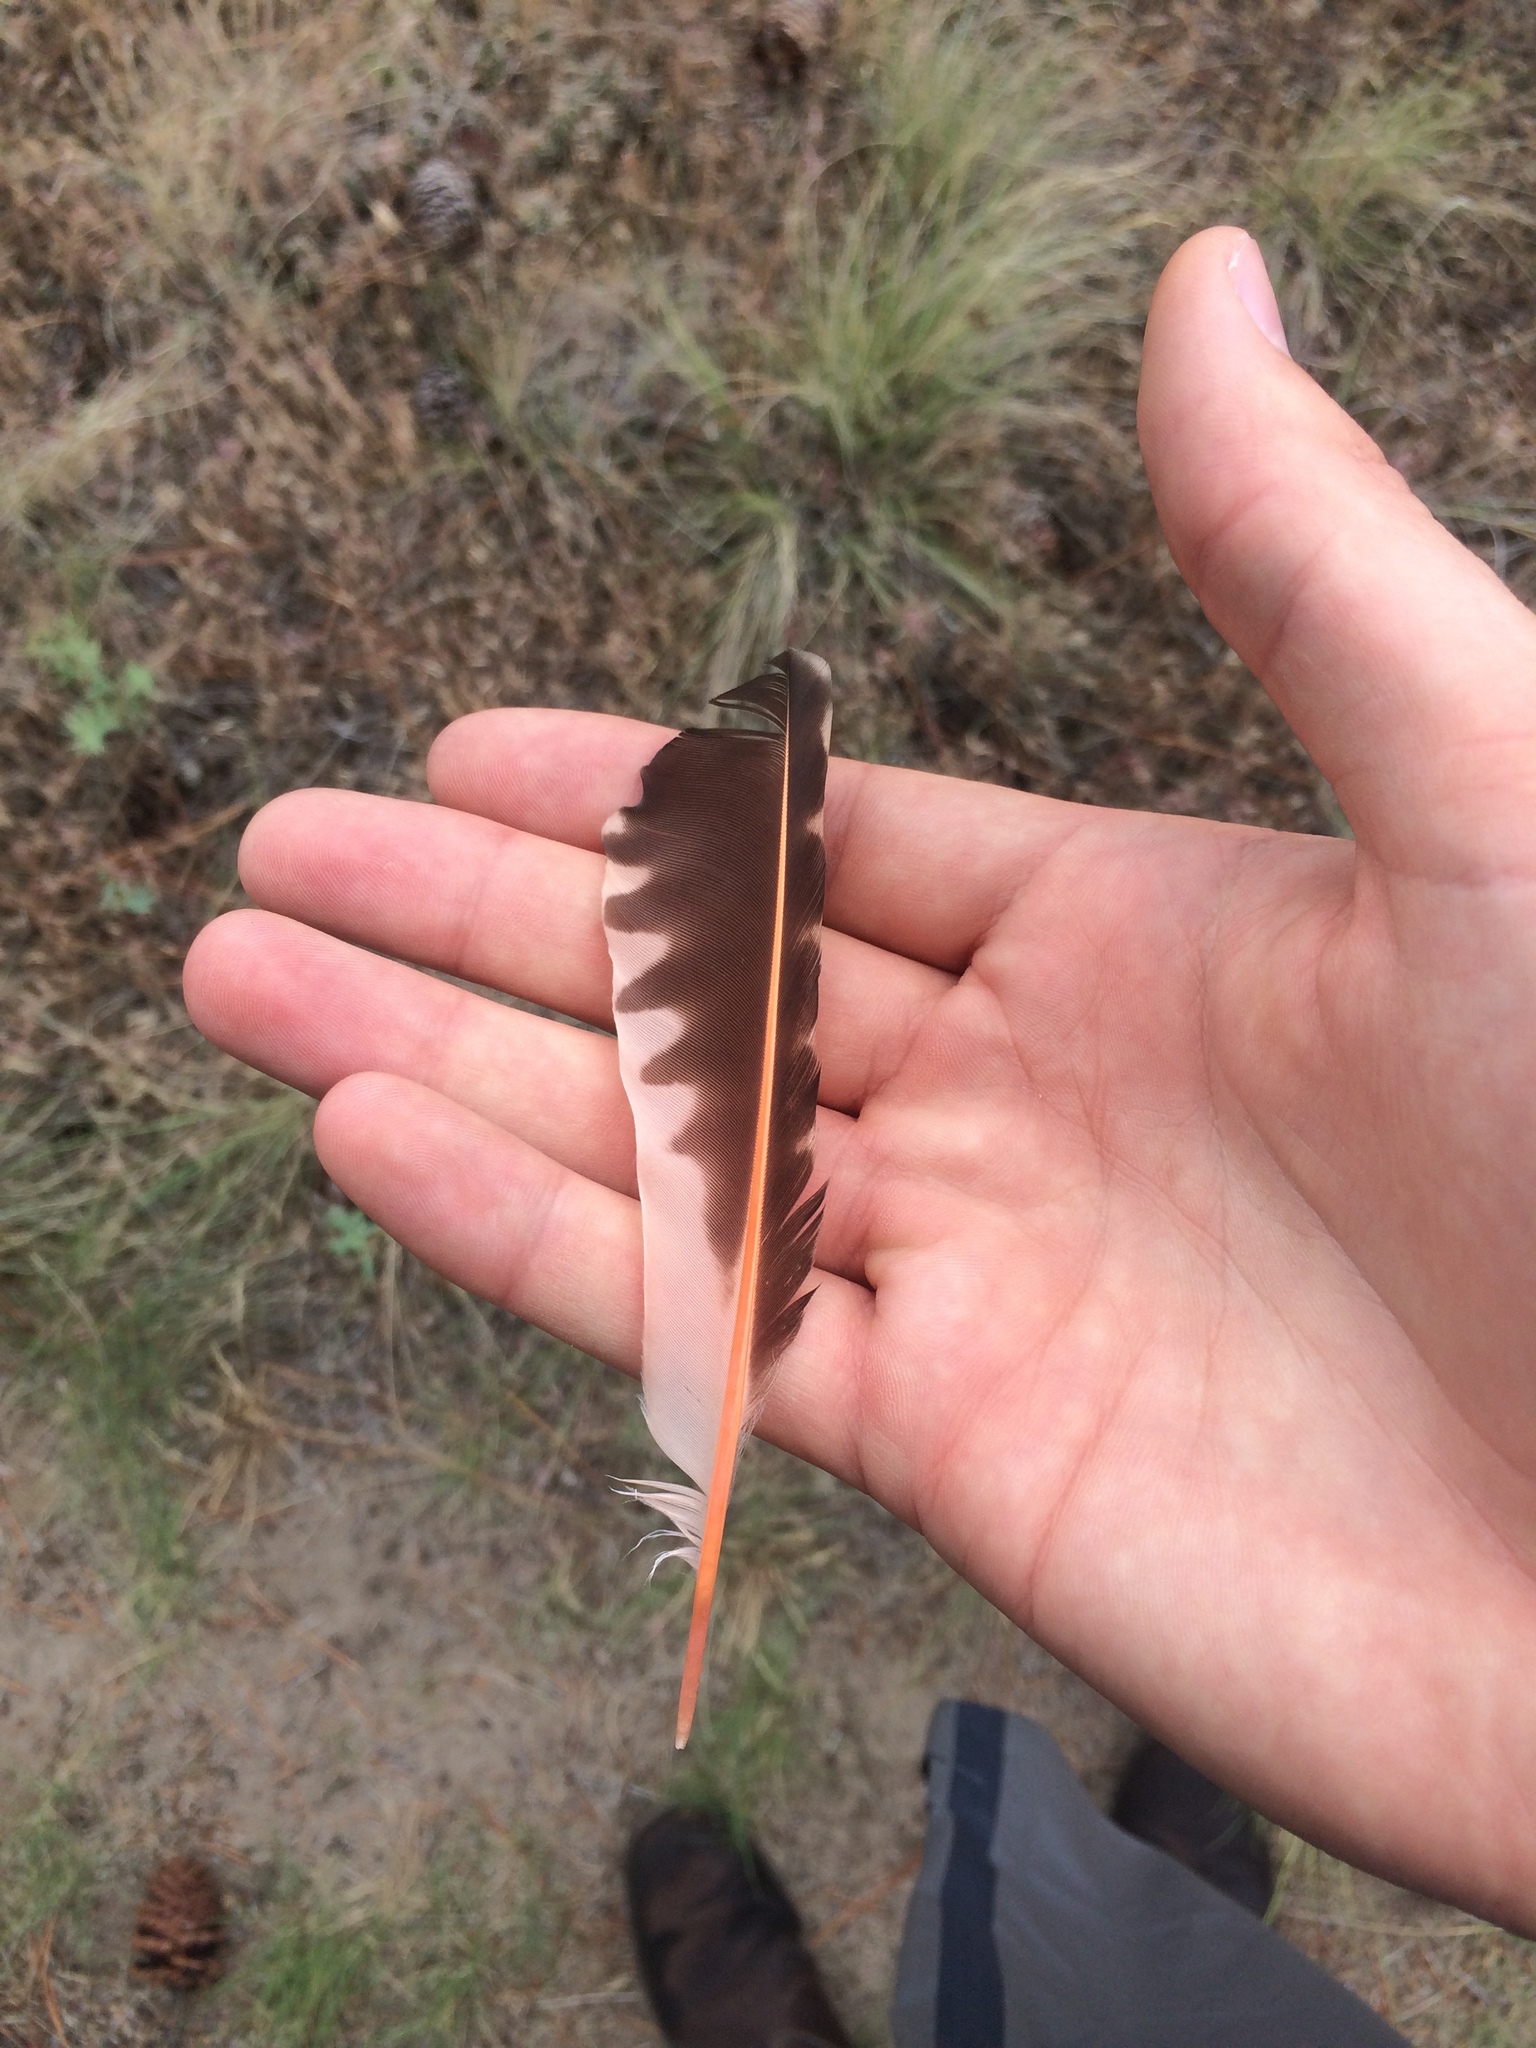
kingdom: Animalia
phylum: Chordata
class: Aves
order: Piciformes
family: Picidae
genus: Colaptes
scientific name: Colaptes auratus
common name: Northern flicker
